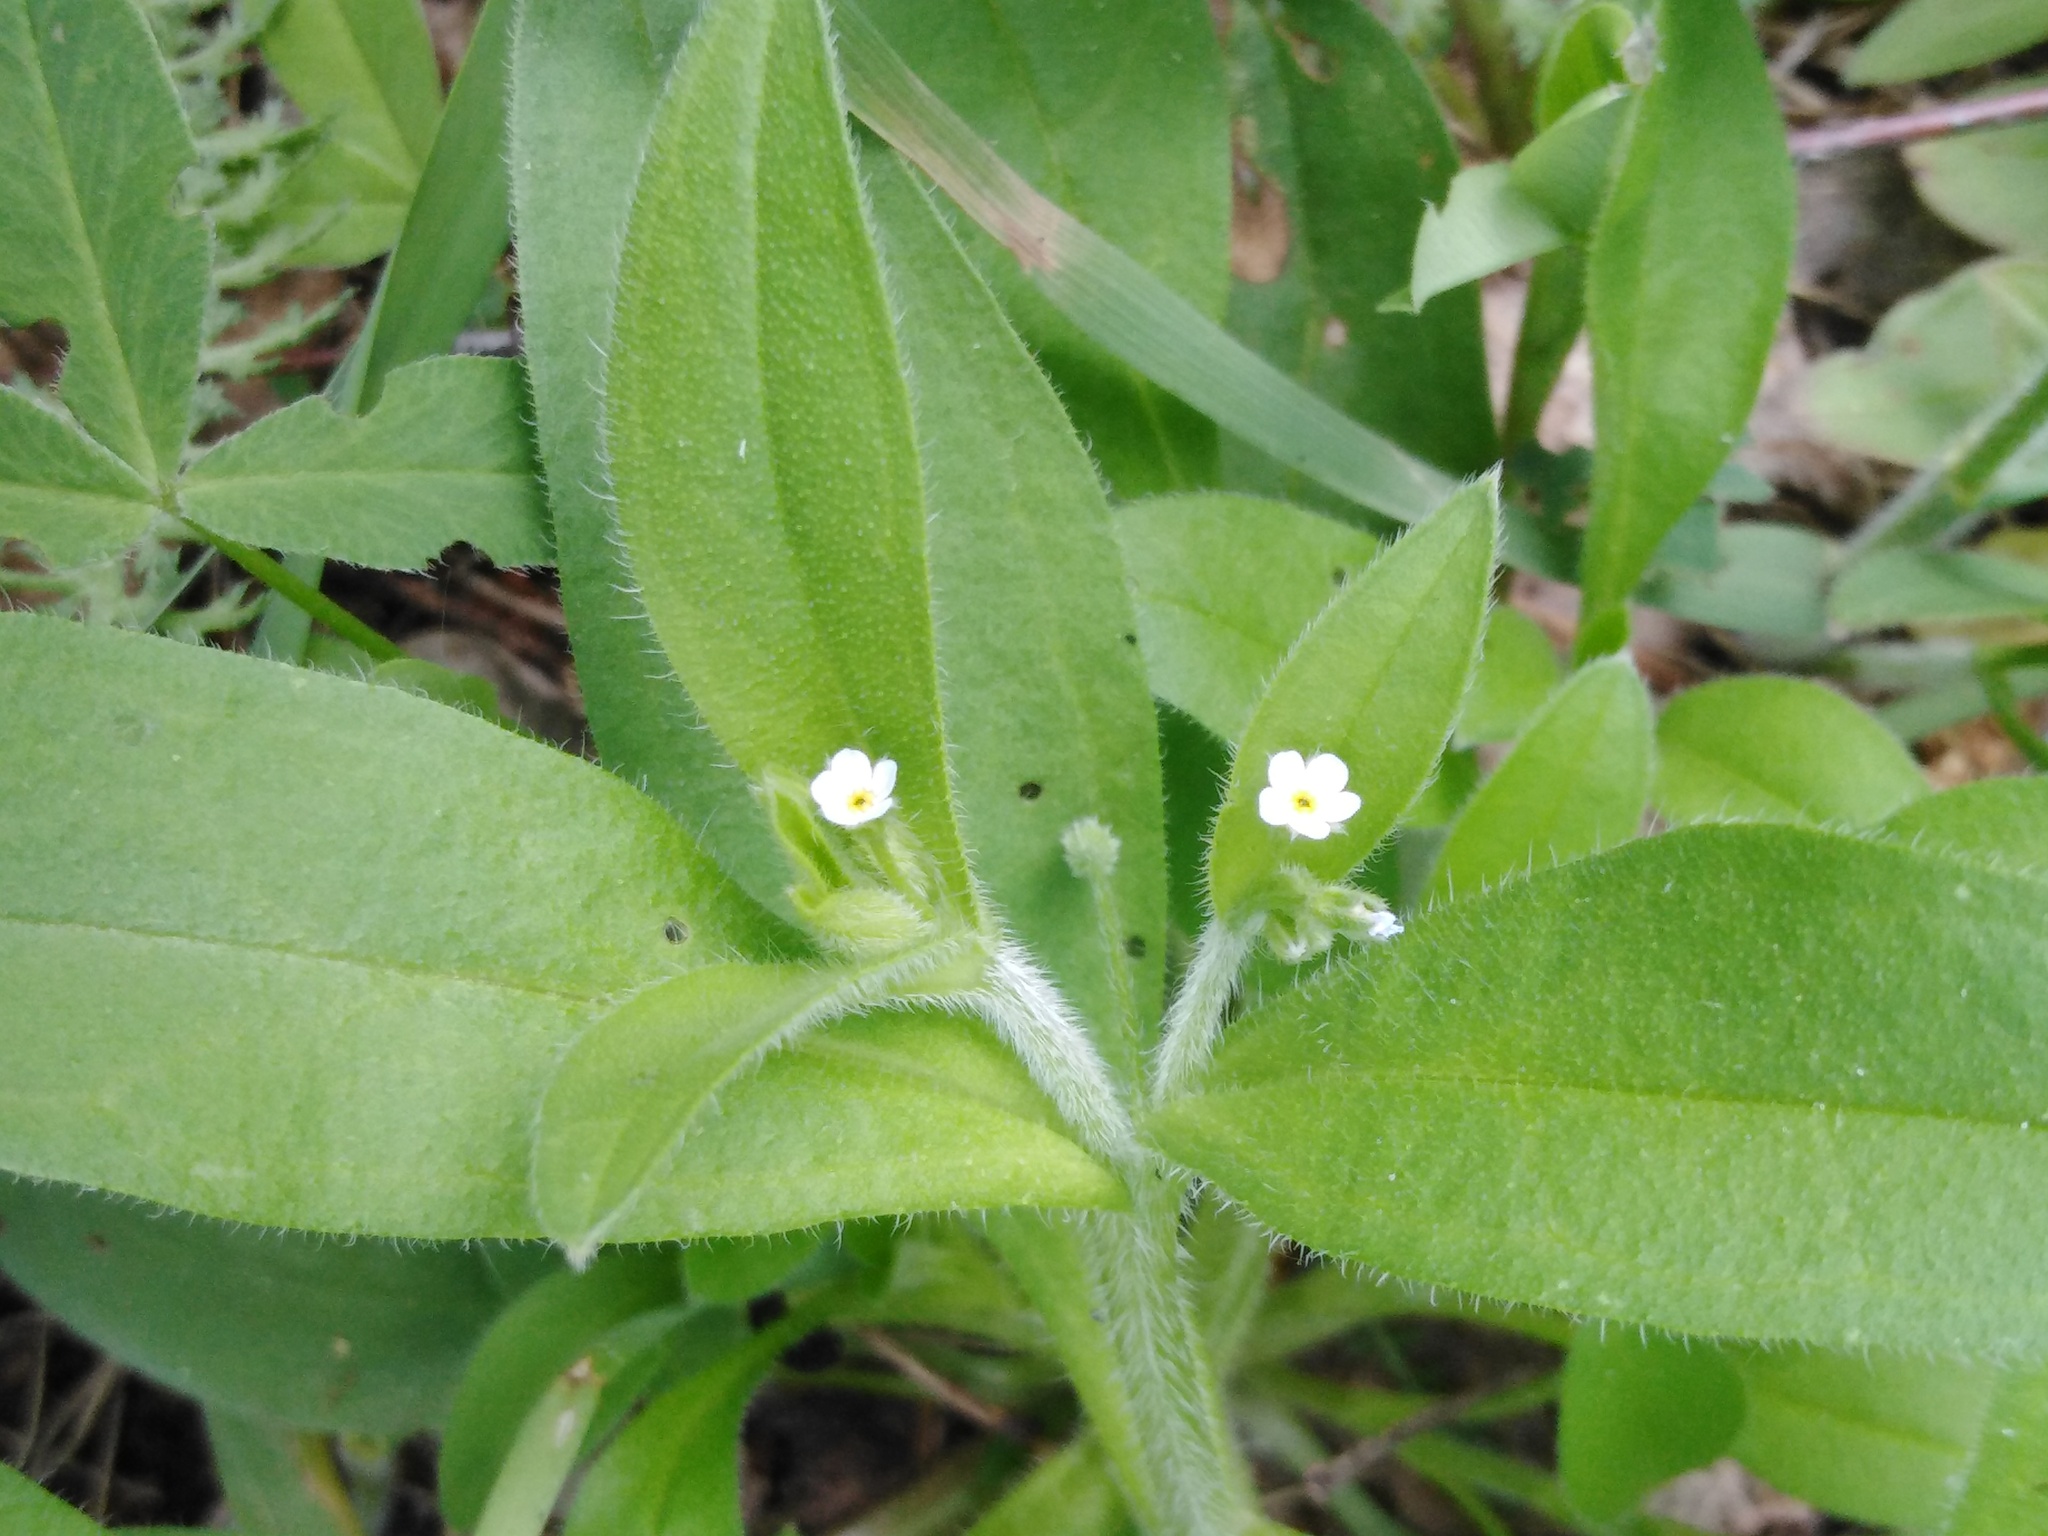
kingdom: Plantae
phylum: Tracheophyta
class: Magnoliopsida
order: Boraginales
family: Boraginaceae
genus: Myosotis
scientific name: Myosotis sparsiflora
